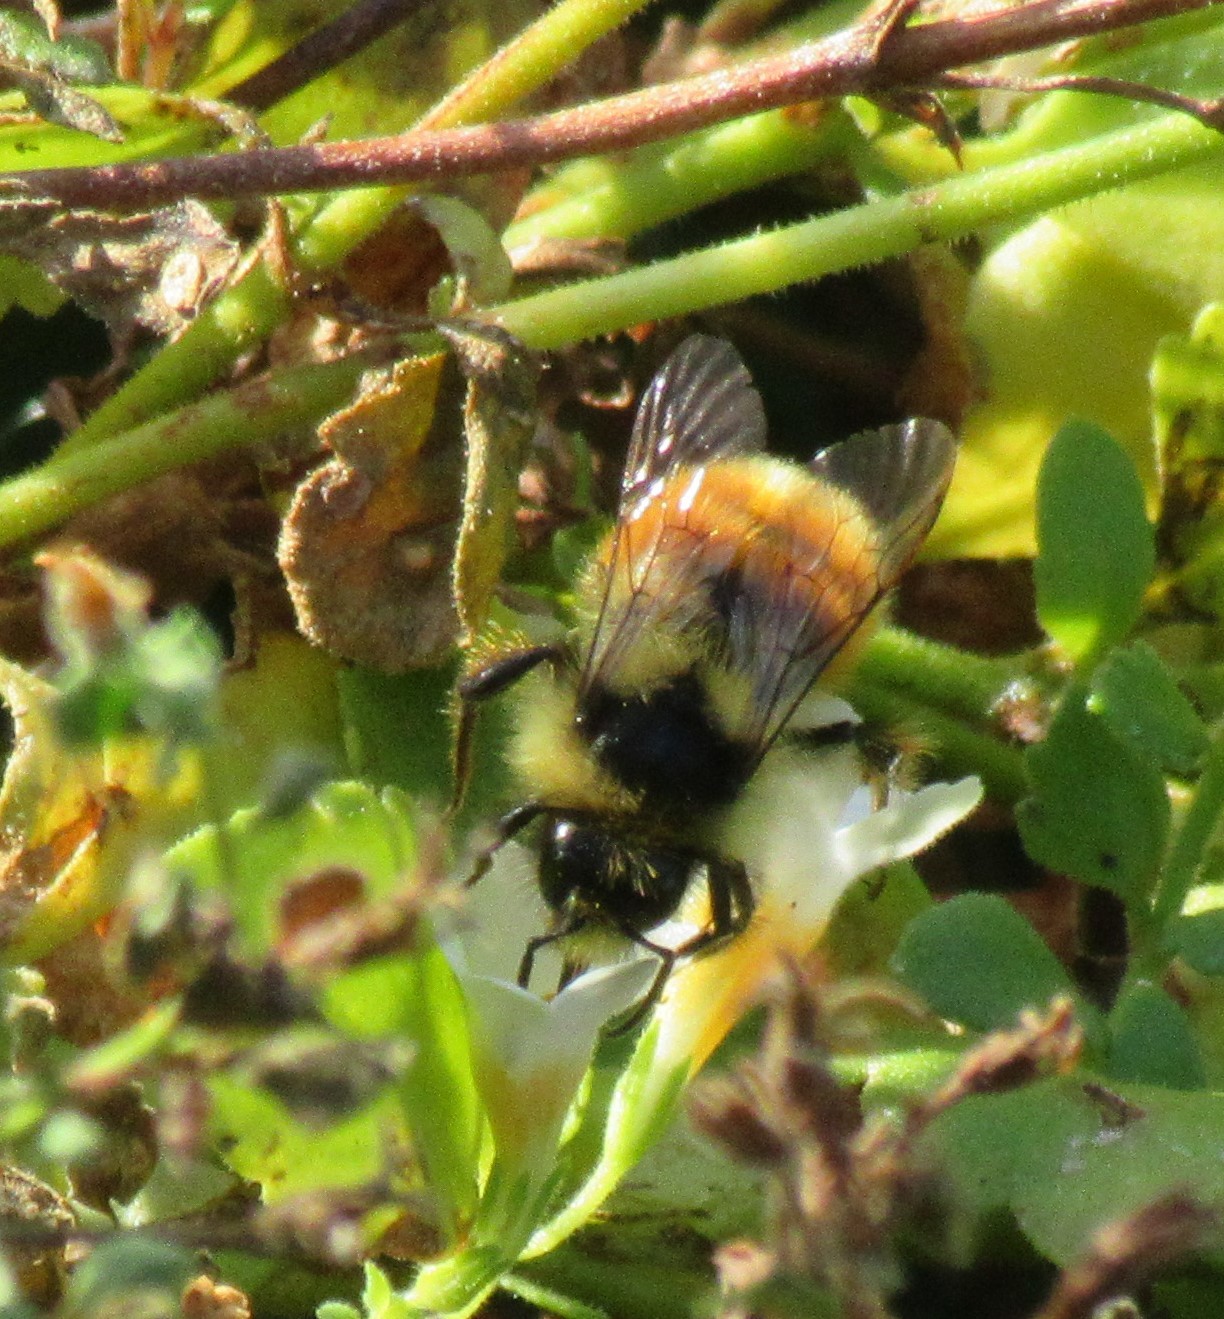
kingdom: Animalia
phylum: Arthropoda
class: Insecta
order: Hymenoptera
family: Apidae
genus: Bombus
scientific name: Bombus ternarius
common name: Tri-colored bumble bee
